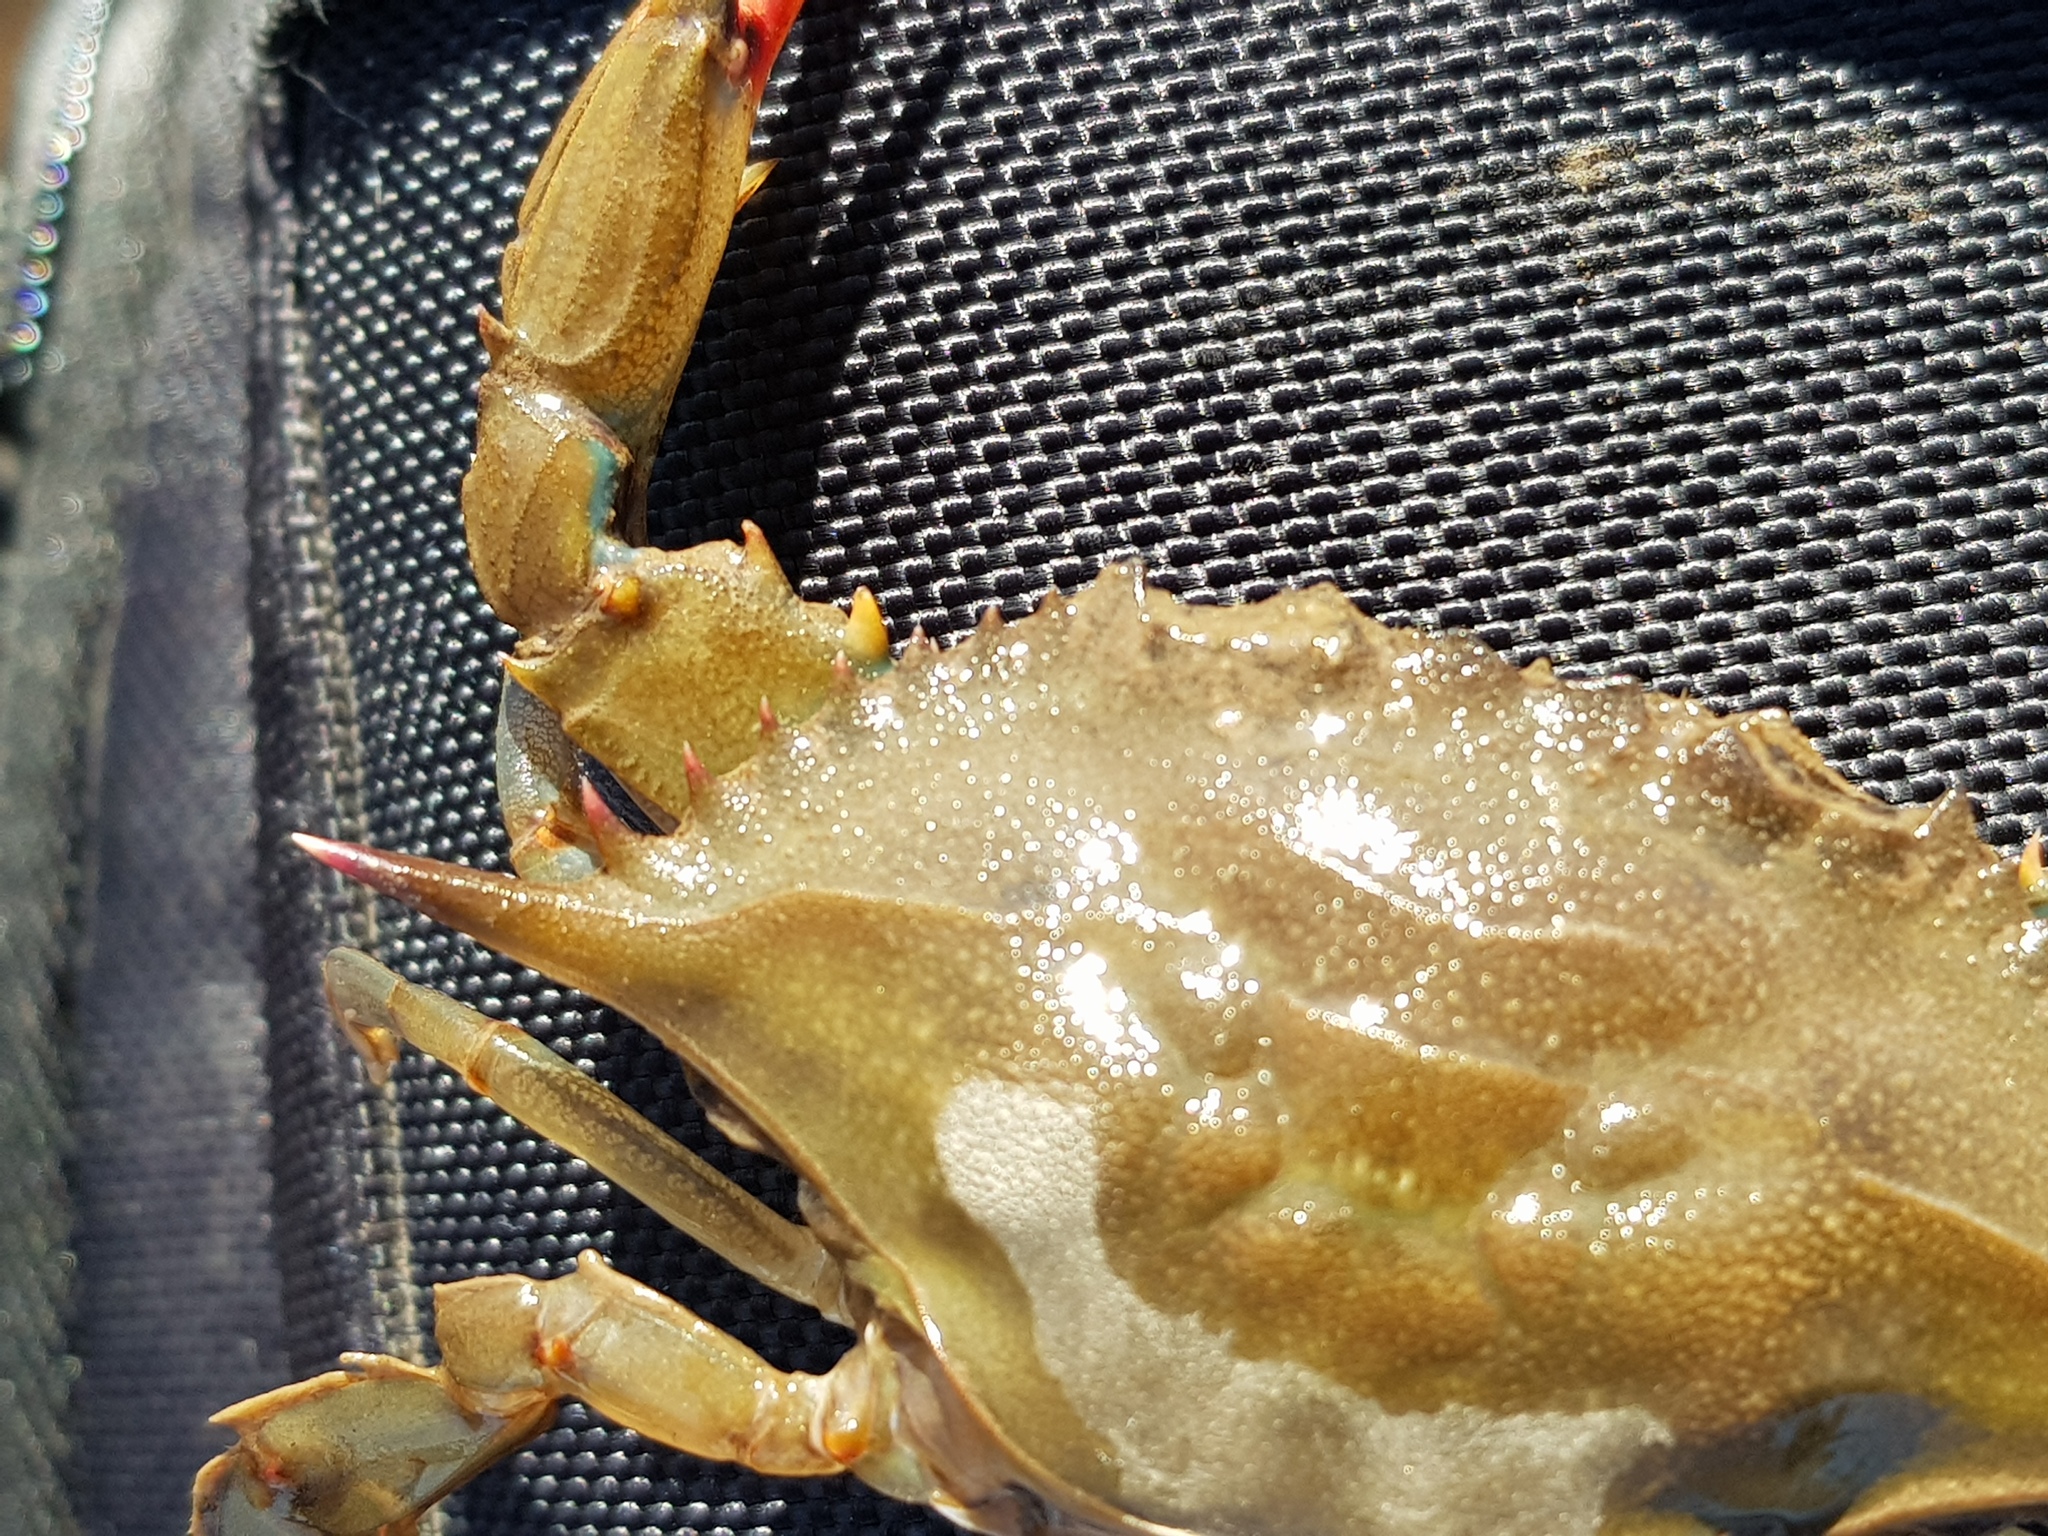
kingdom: Animalia
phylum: Arthropoda
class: Malacostraca
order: Decapoda
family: Portunidae
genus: Callinectes
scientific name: Callinectes sapidus
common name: Blue crab
